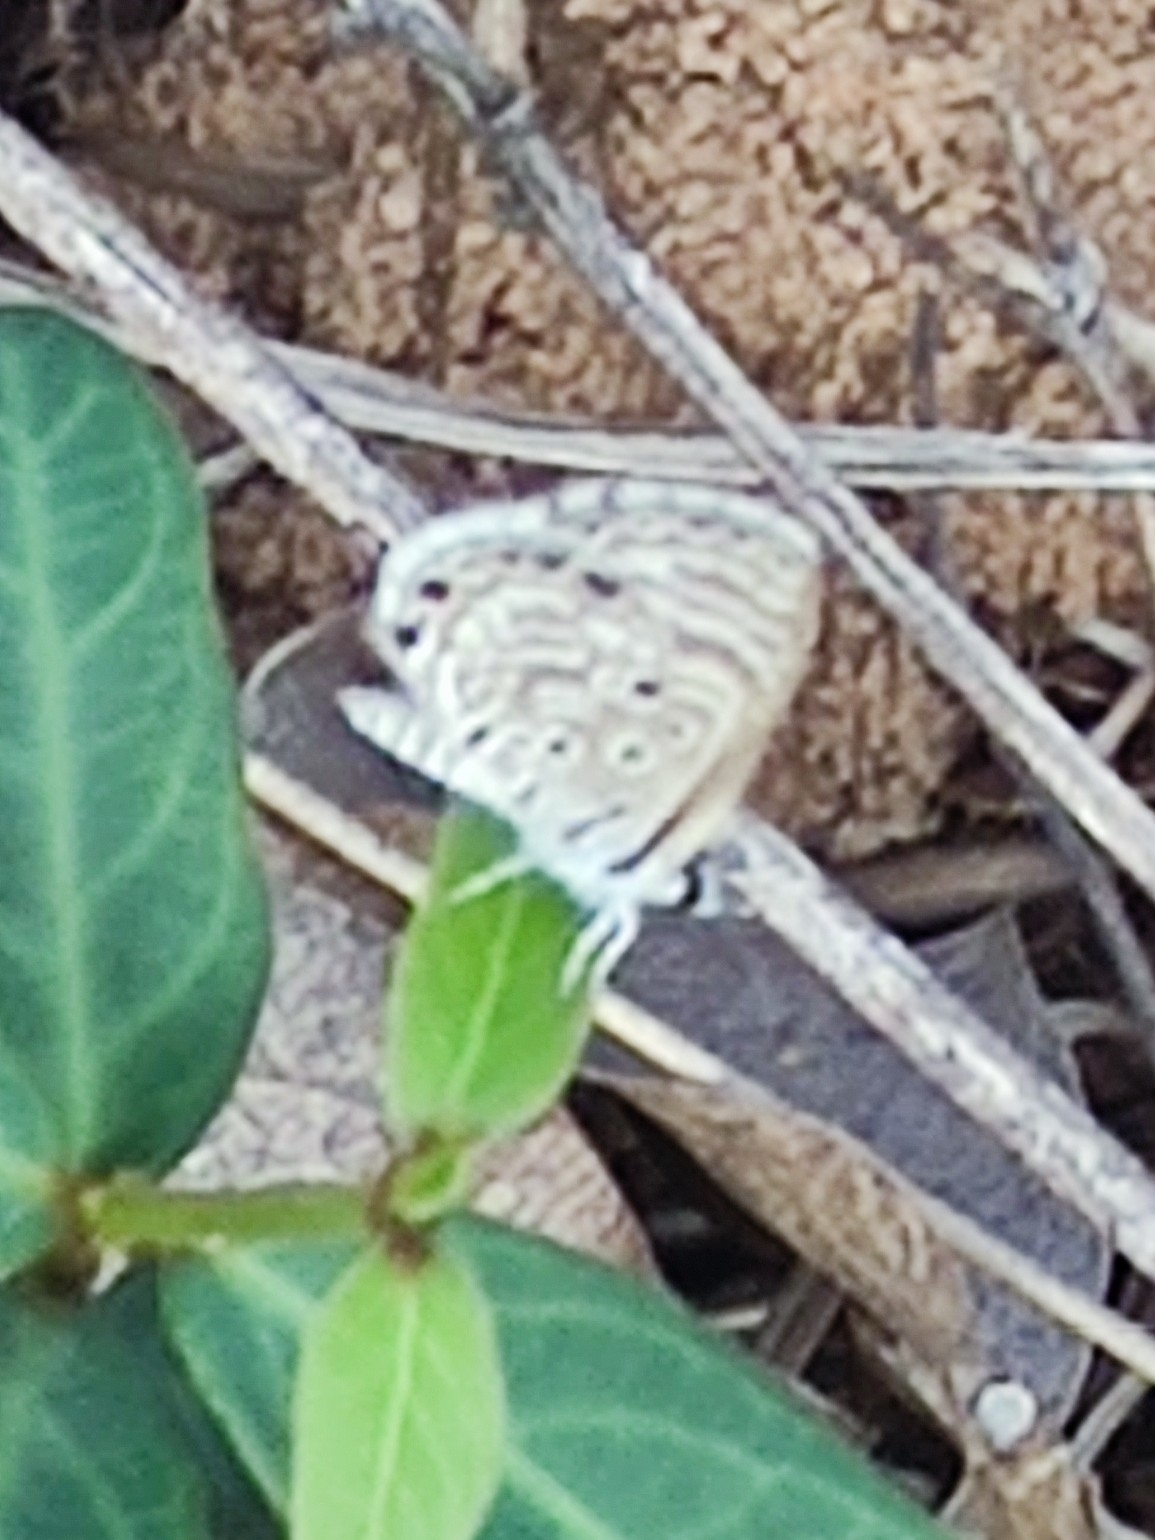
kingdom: Animalia
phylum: Arthropoda
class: Insecta
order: Lepidoptera
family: Lycaenidae
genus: Azanus
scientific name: Azanus jesous
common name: African babul blue
